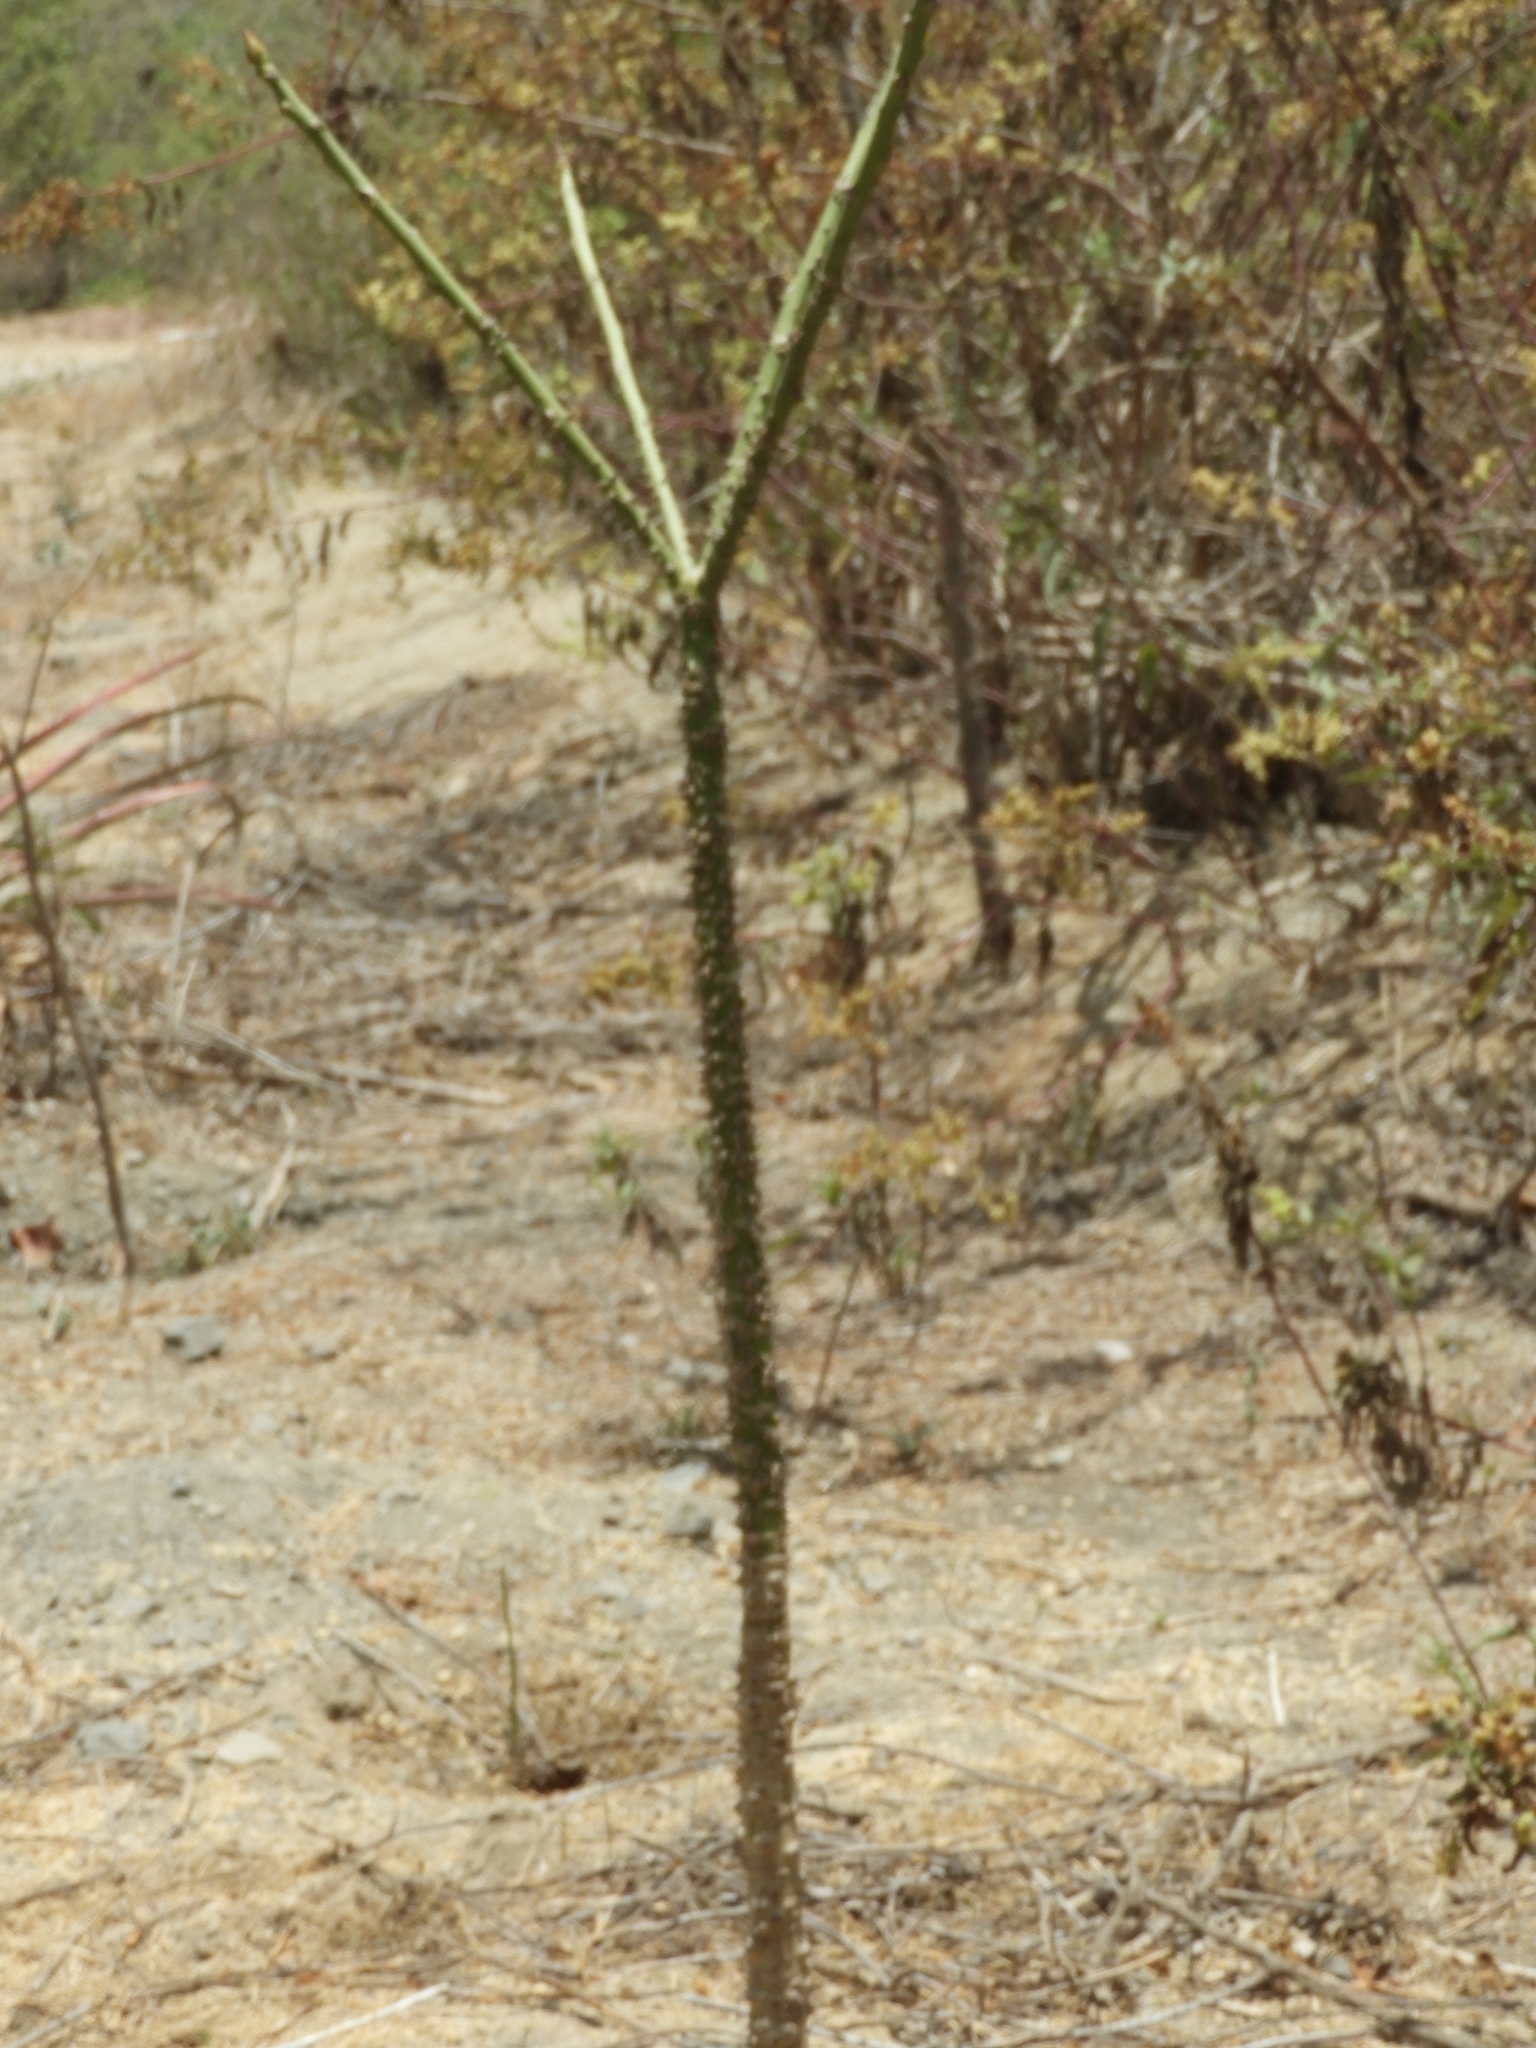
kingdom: Plantae
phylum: Tracheophyta
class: Magnoliopsida
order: Malpighiales
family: Euphorbiaceae
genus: Hura
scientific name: Hura polyandra
